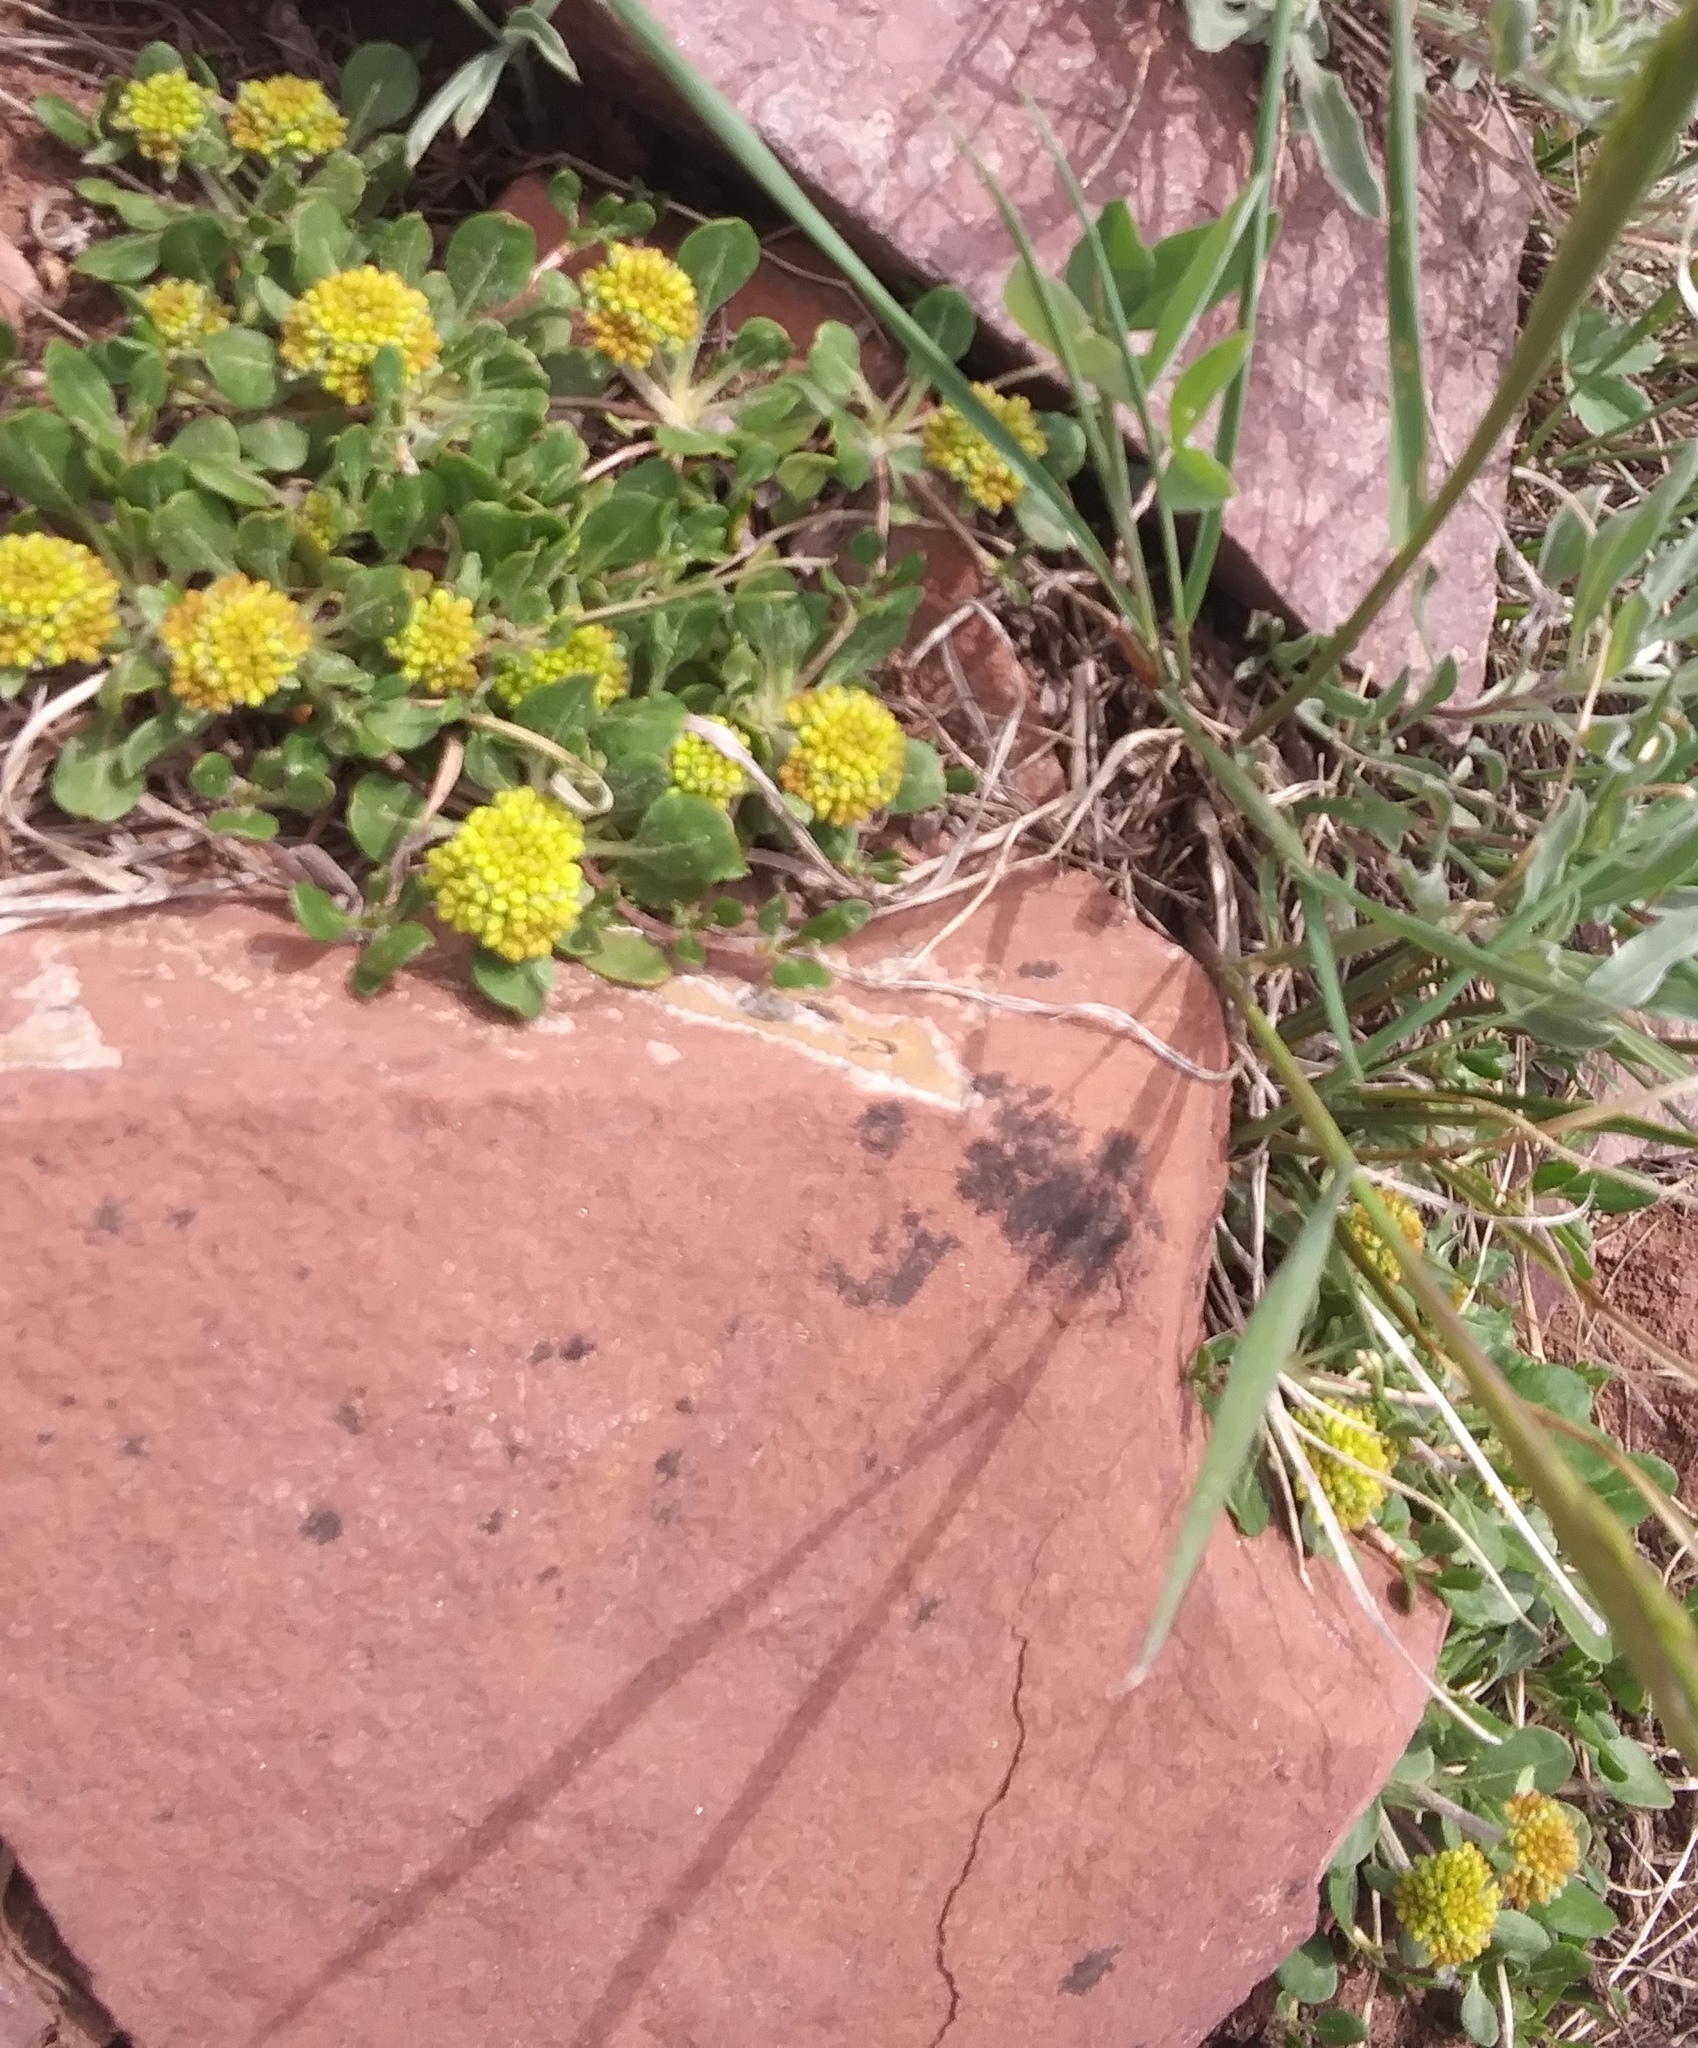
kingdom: Plantae
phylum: Tracheophyta
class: Magnoliopsida
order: Caryophyllales
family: Polygonaceae
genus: Eriogonum
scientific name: Eriogonum umbellatum
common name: Sulfur-buckwheat
